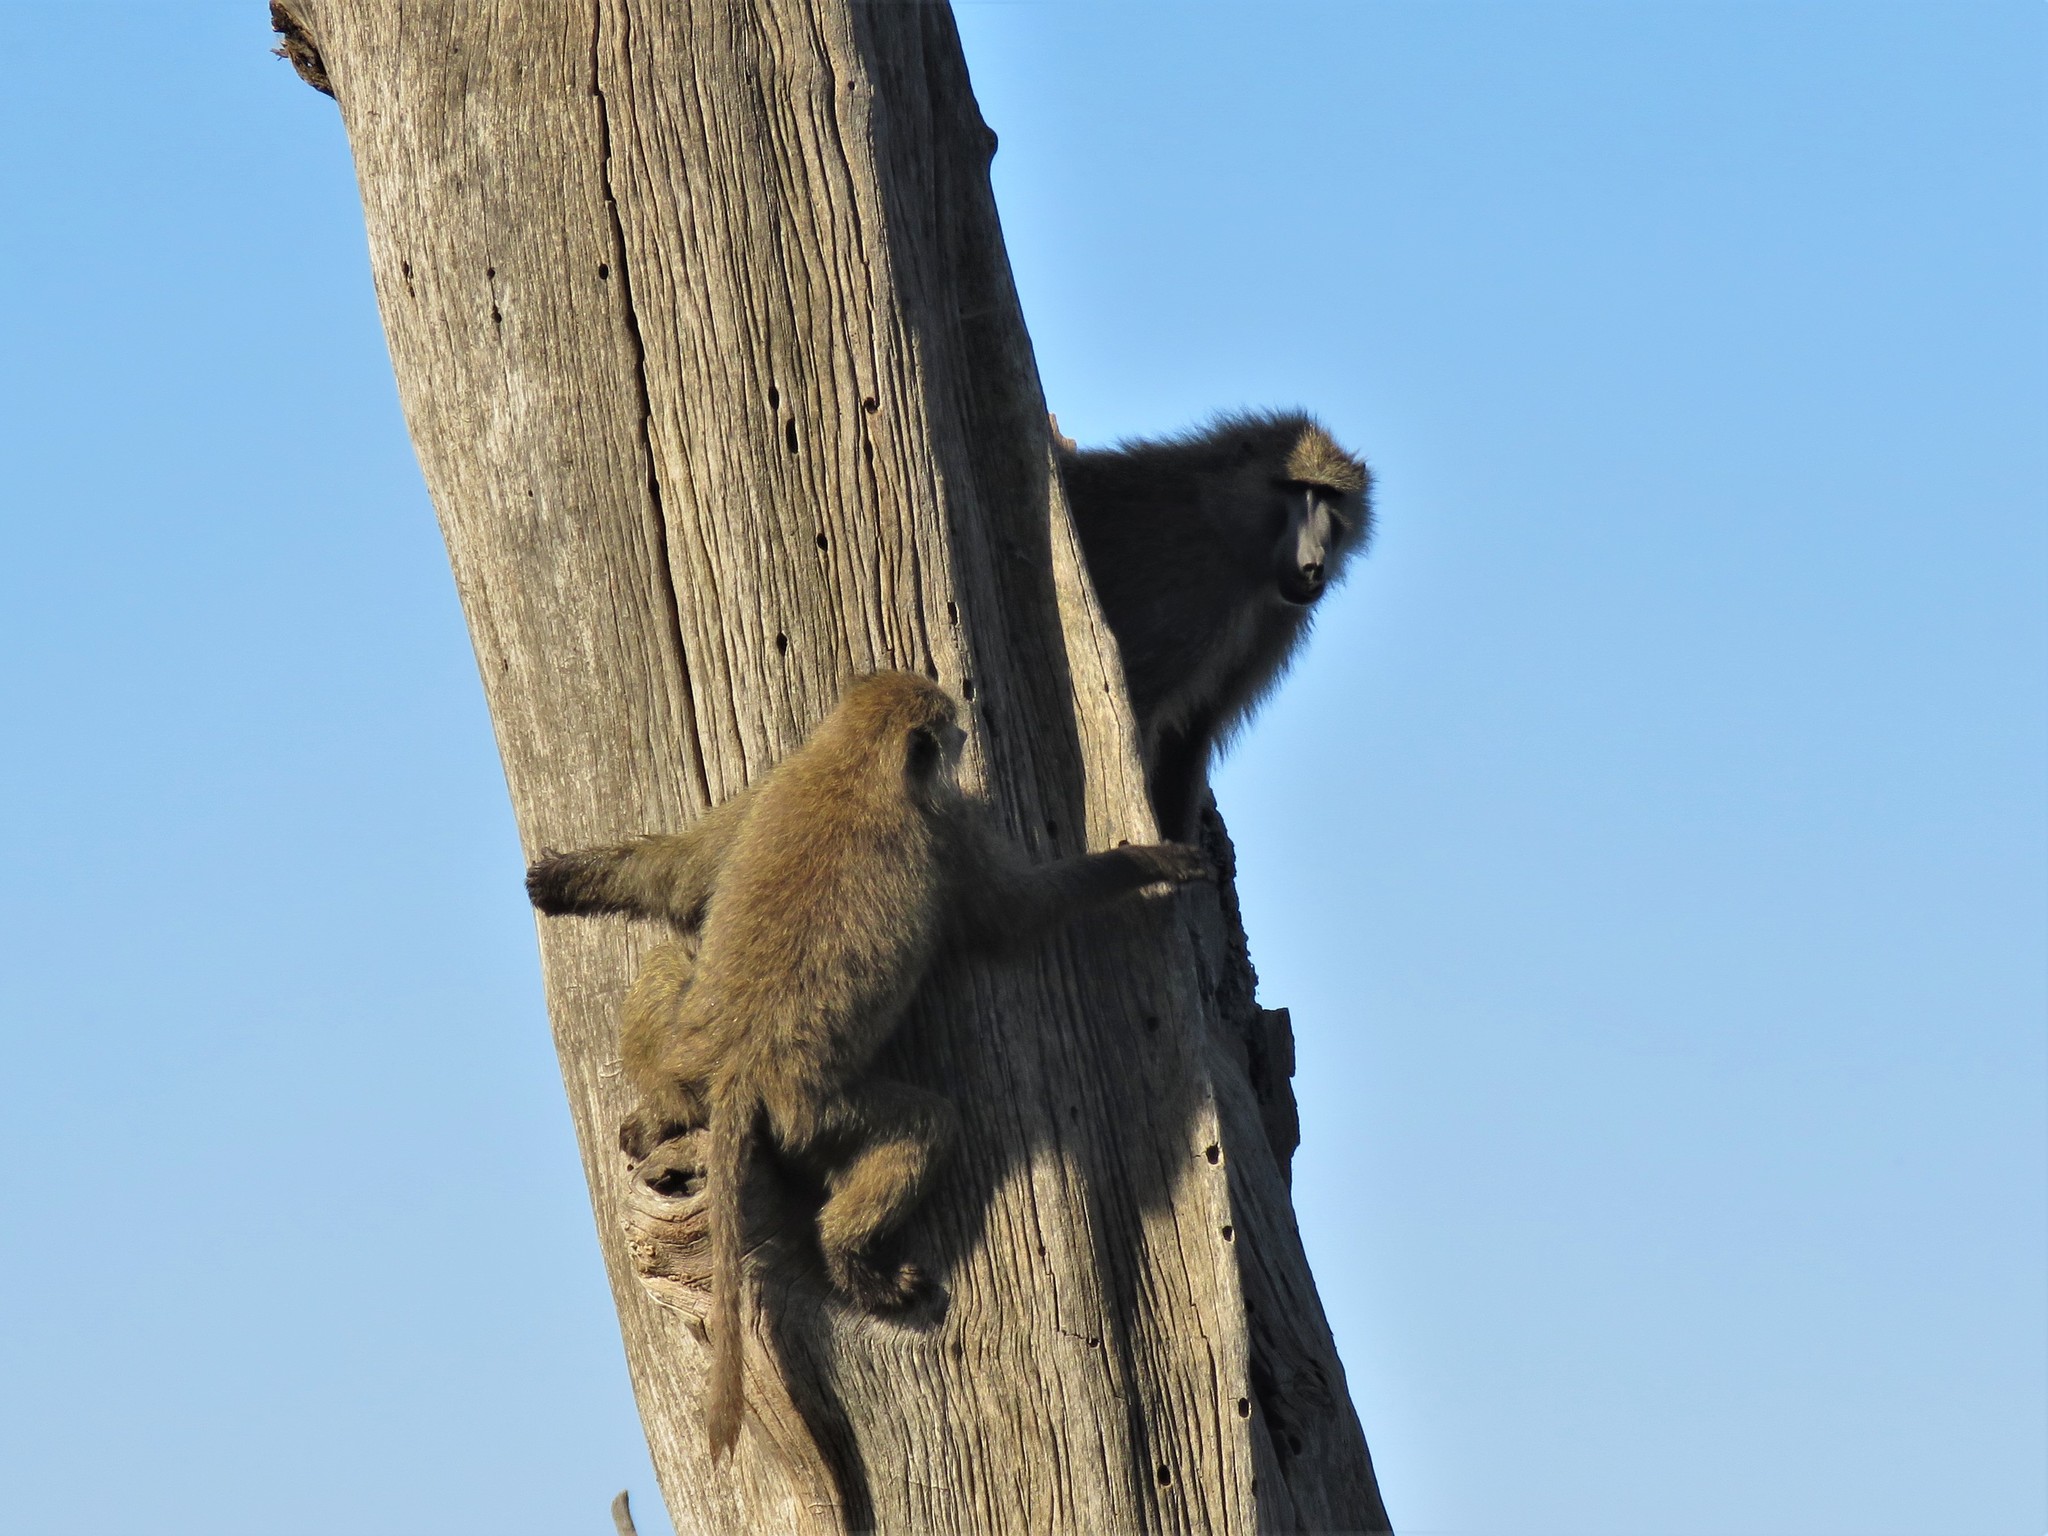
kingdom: Animalia
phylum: Chordata
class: Mammalia
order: Primates
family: Cercopithecidae
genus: Papio
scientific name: Papio anubis
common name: Olive baboon
